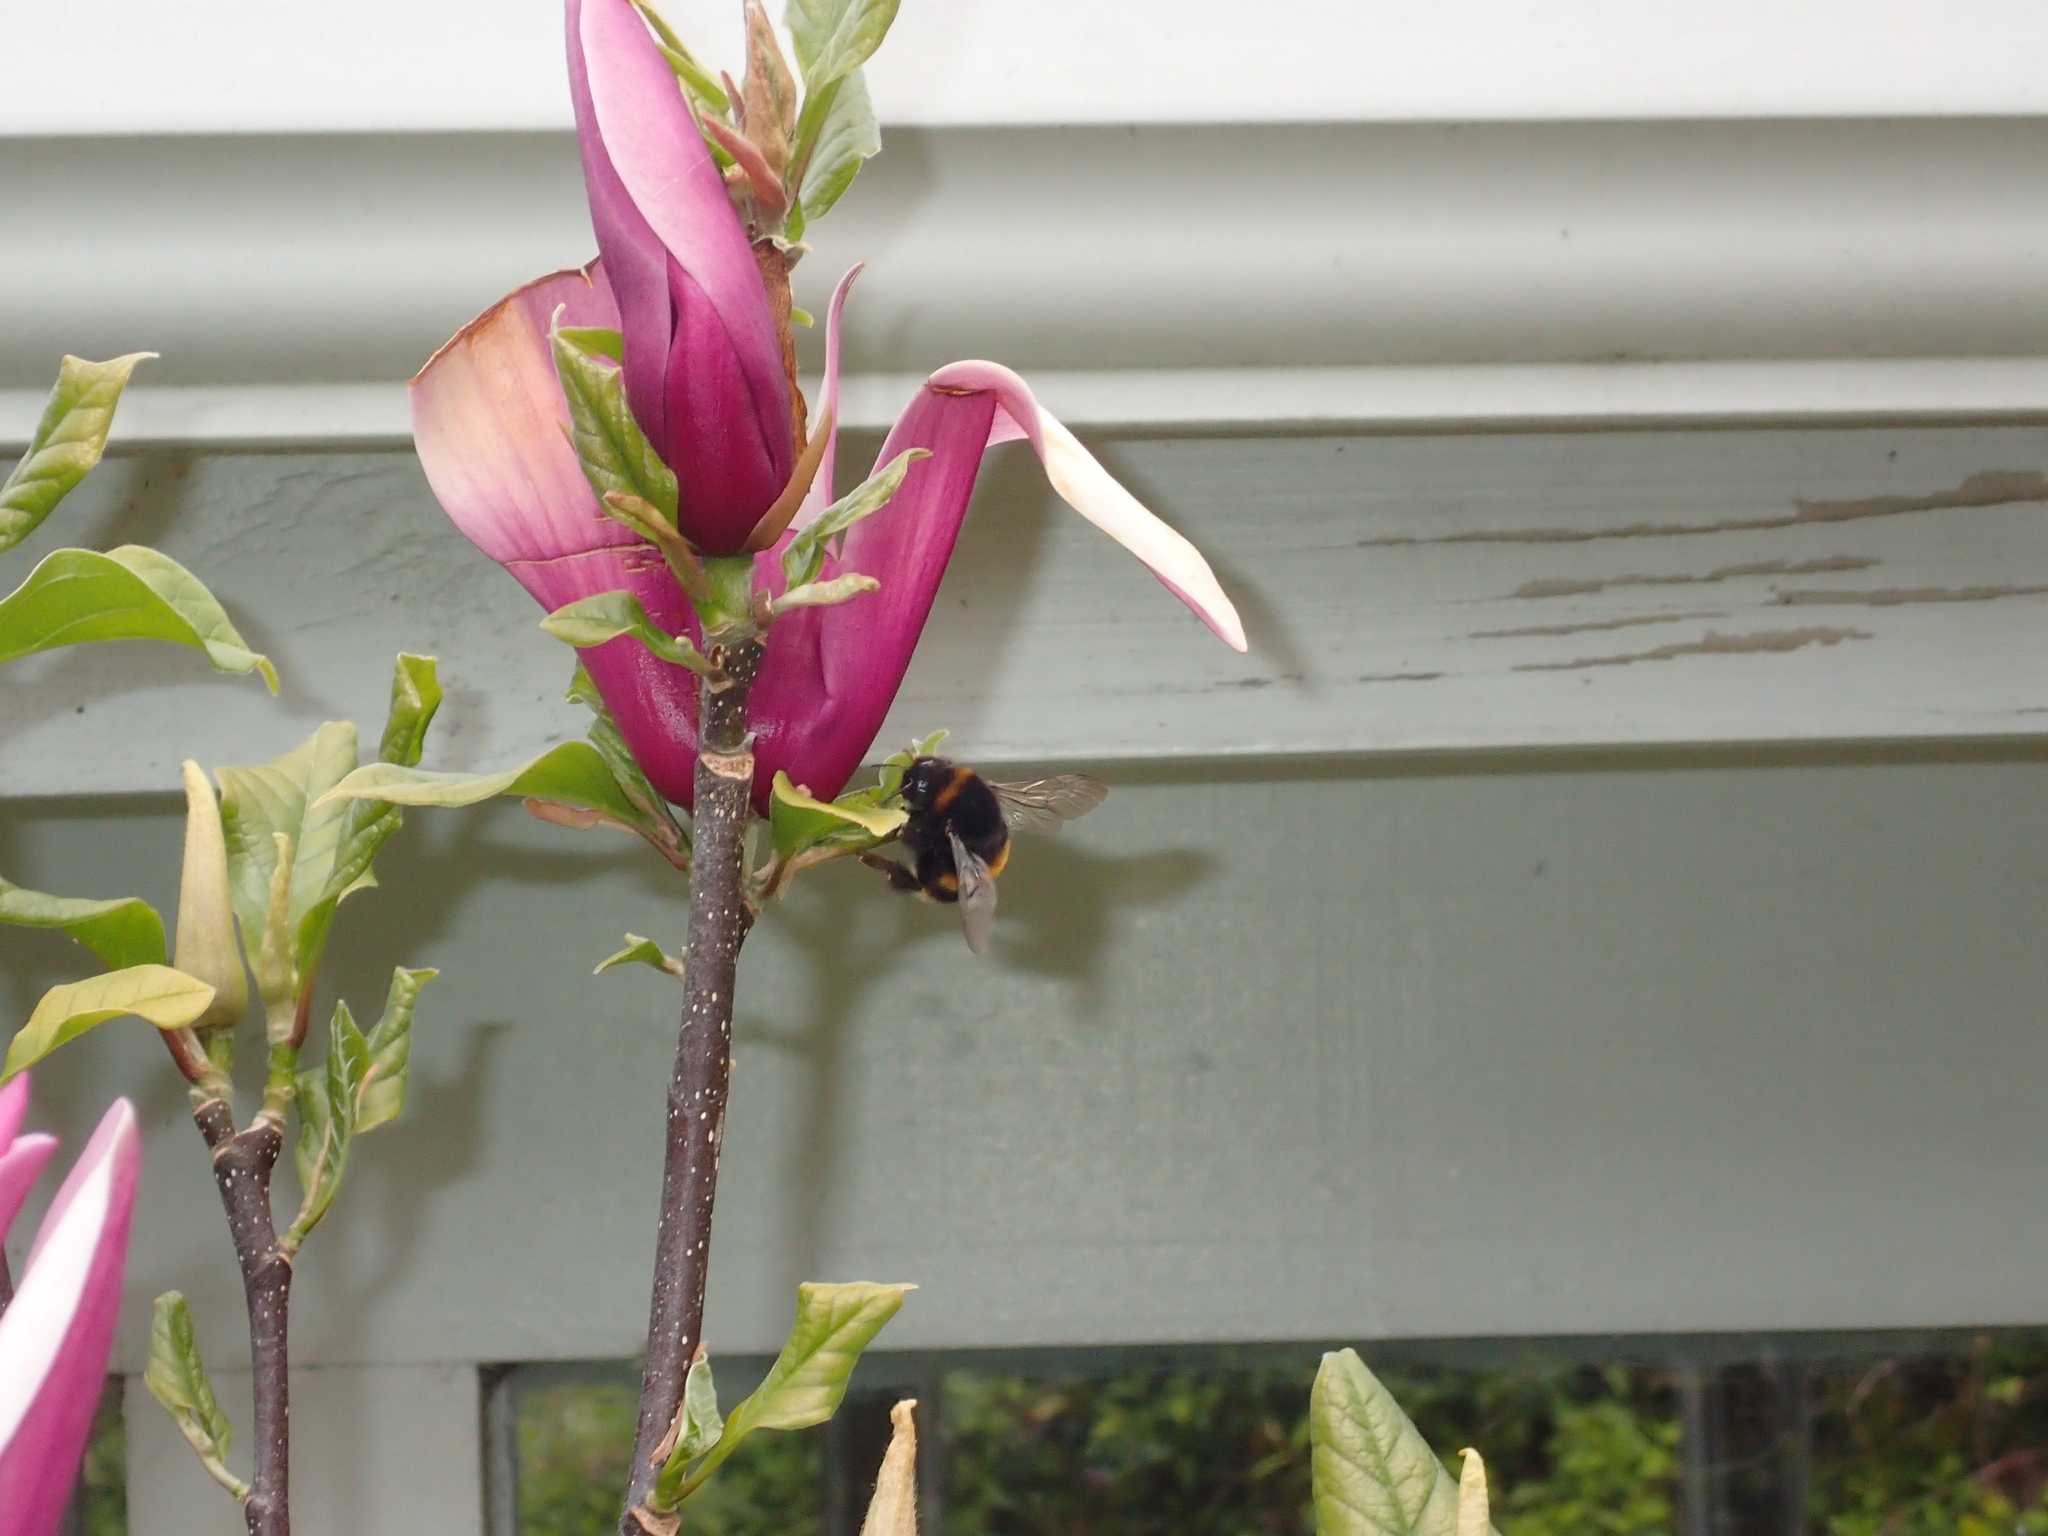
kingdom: Animalia
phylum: Arthropoda
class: Insecta
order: Hymenoptera
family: Apidae
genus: Bombus
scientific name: Bombus terrestris
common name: Buff-tailed bumblebee
